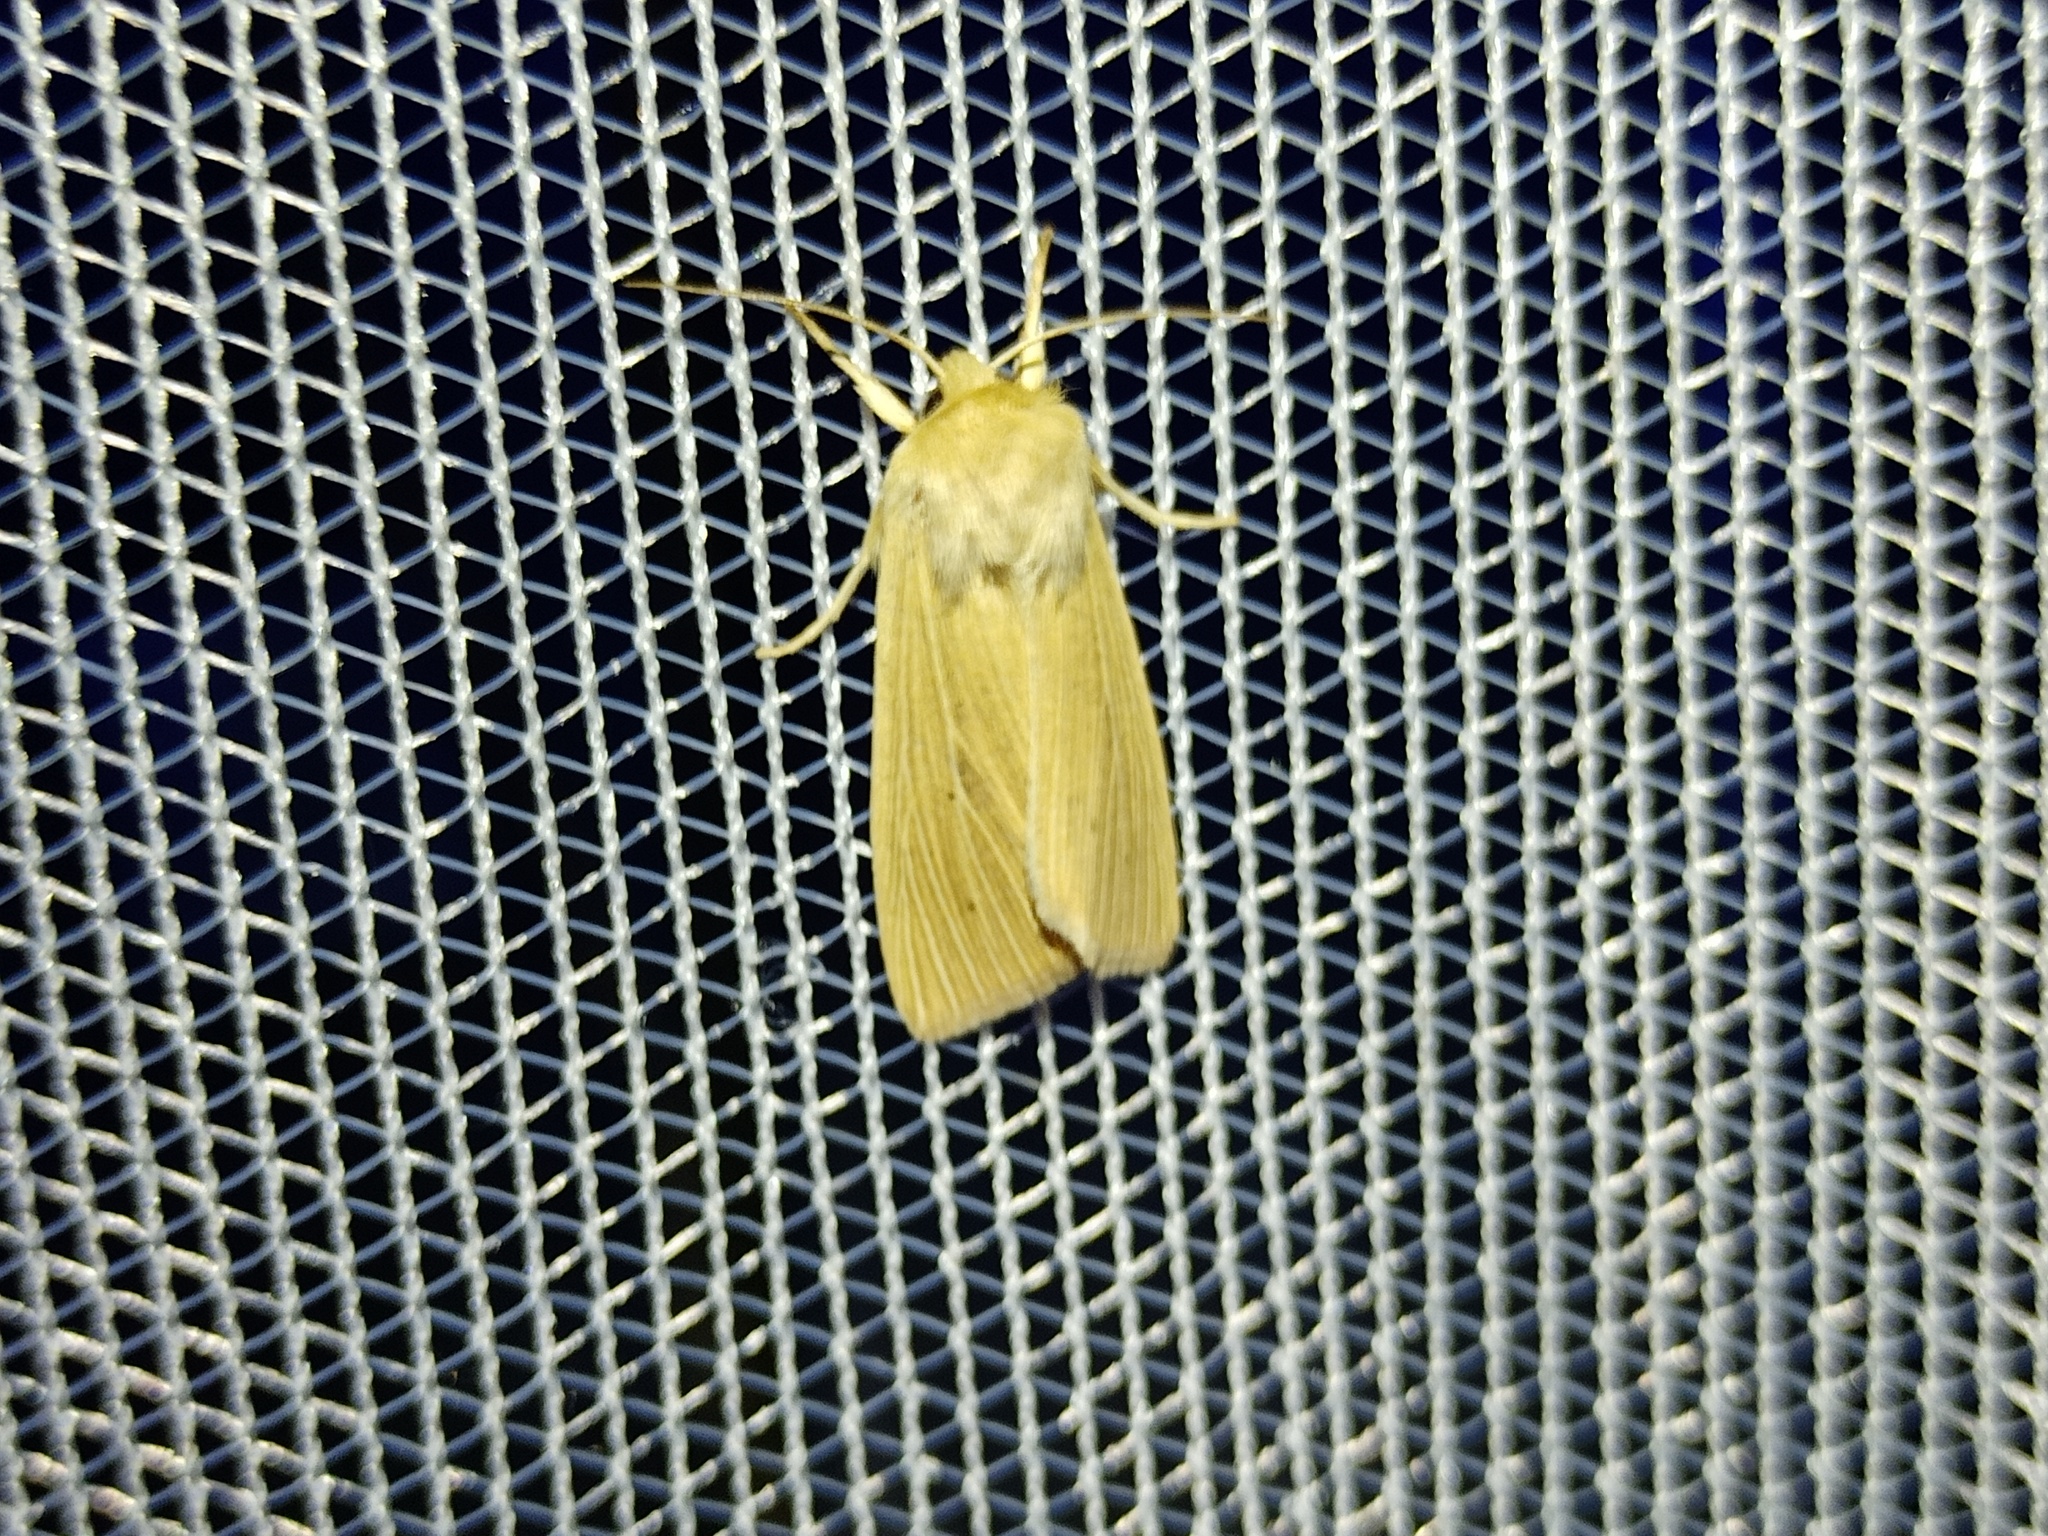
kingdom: Animalia
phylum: Arthropoda
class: Insecta
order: Lepidoptera
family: Noctuidae
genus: Mythimna
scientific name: Mythimna pallens
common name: Common wainscot
